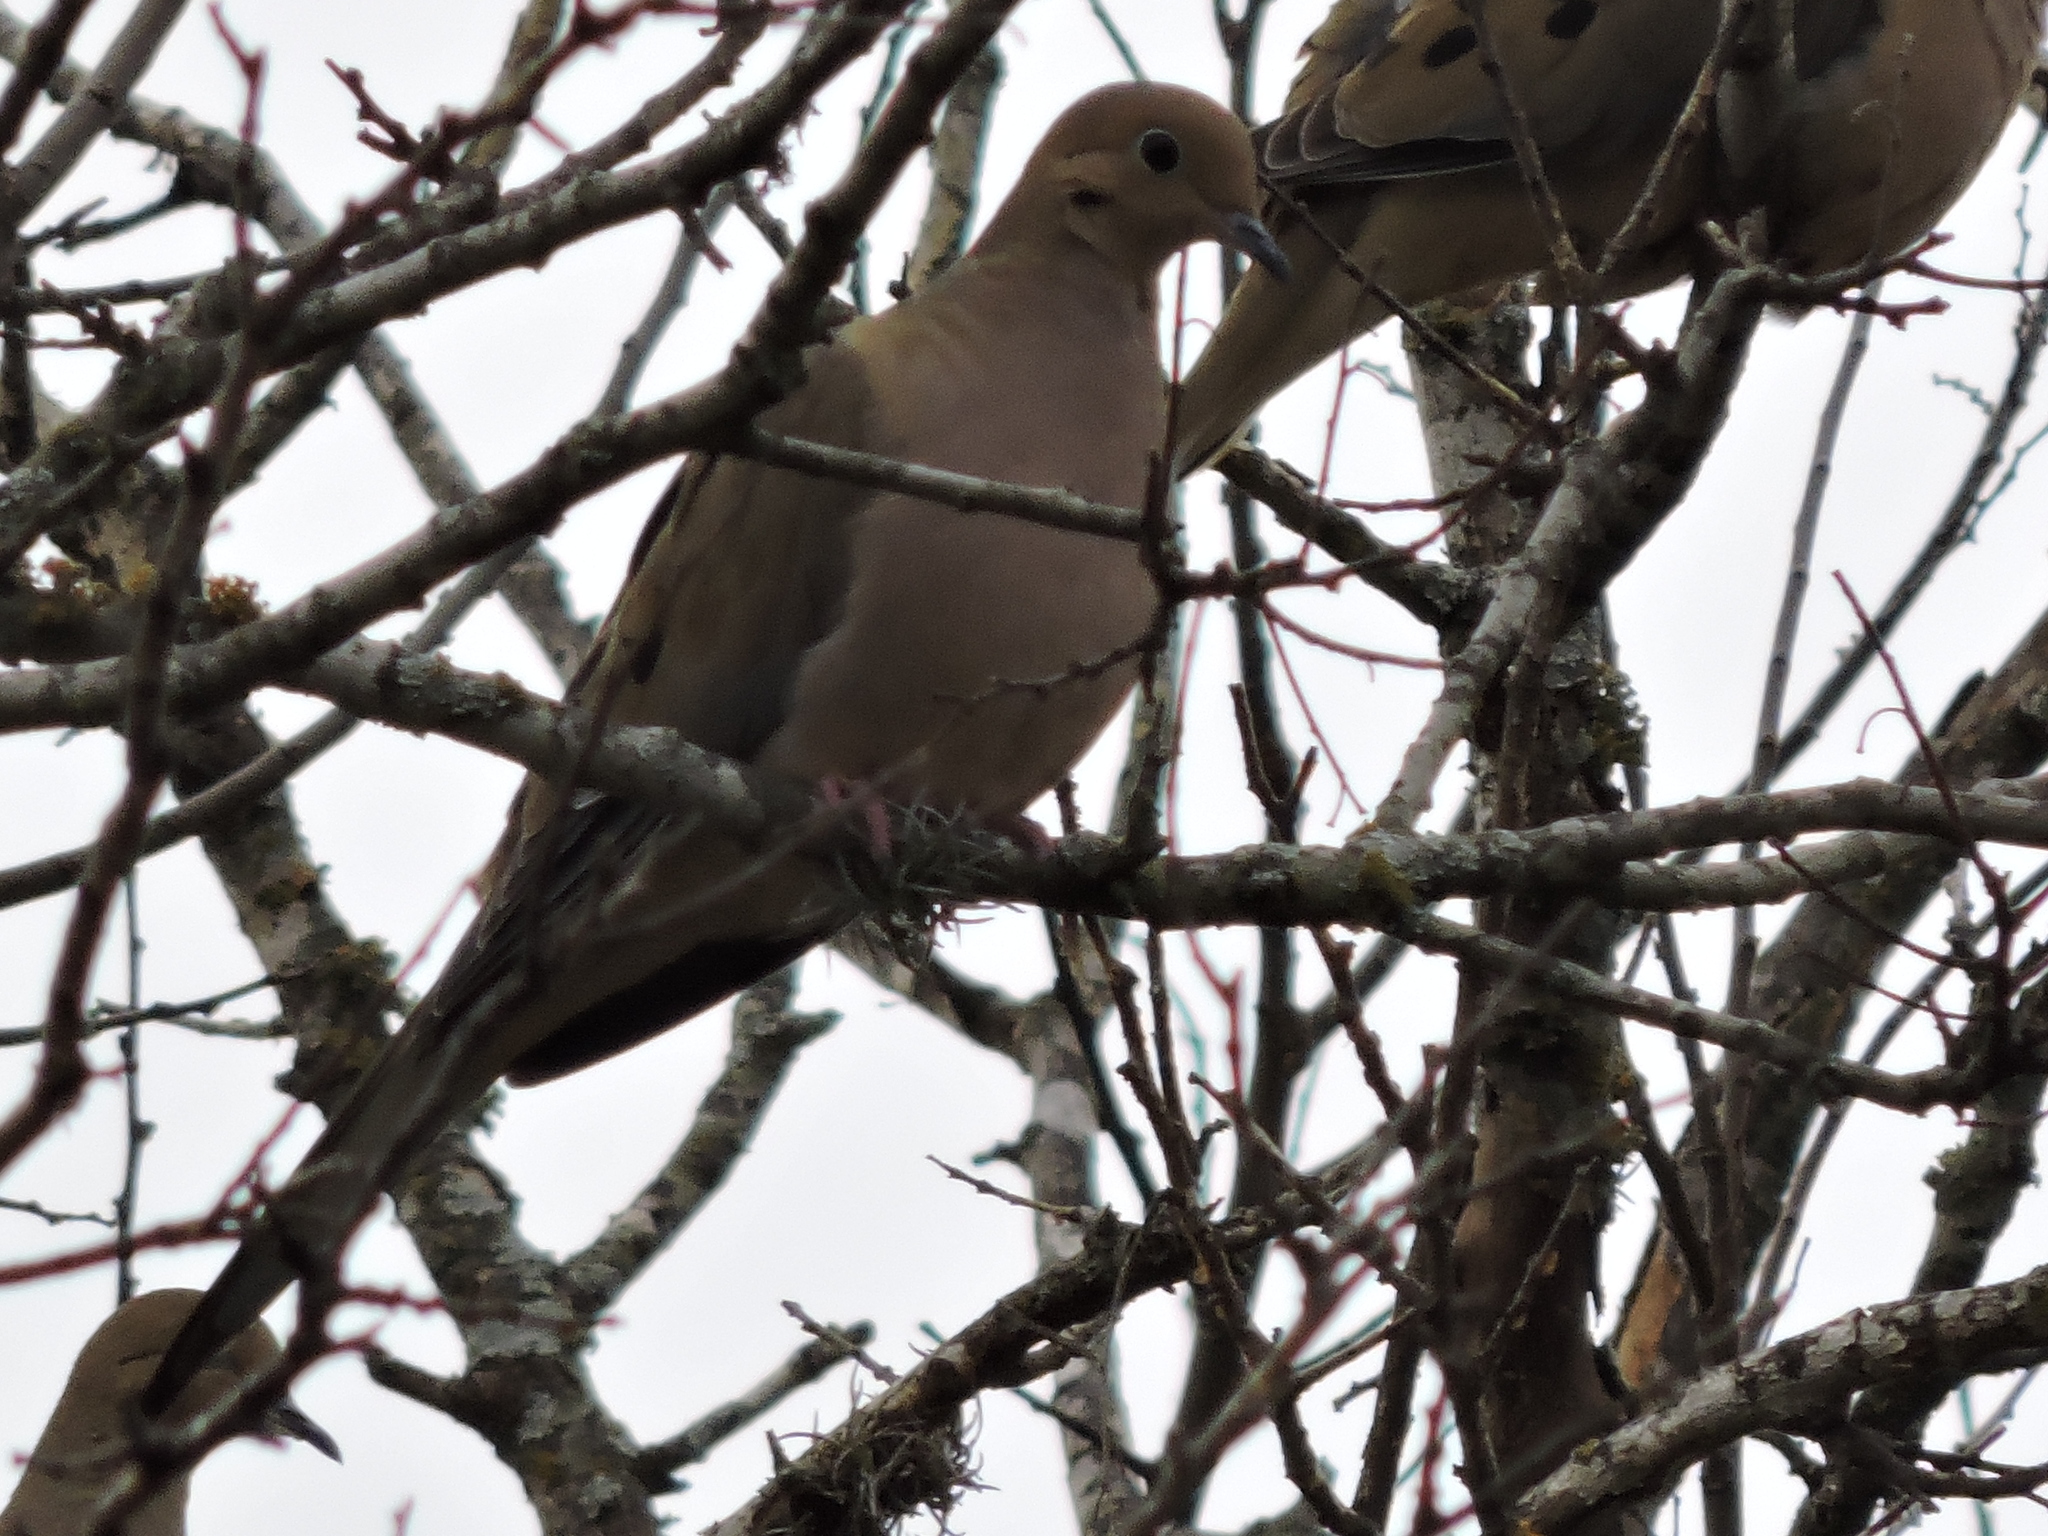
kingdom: Animalia
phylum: Chordata
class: Aves
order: Columbiformes
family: Columbidae
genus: Zenaida
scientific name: Zenaida macroura
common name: Mourning dove
